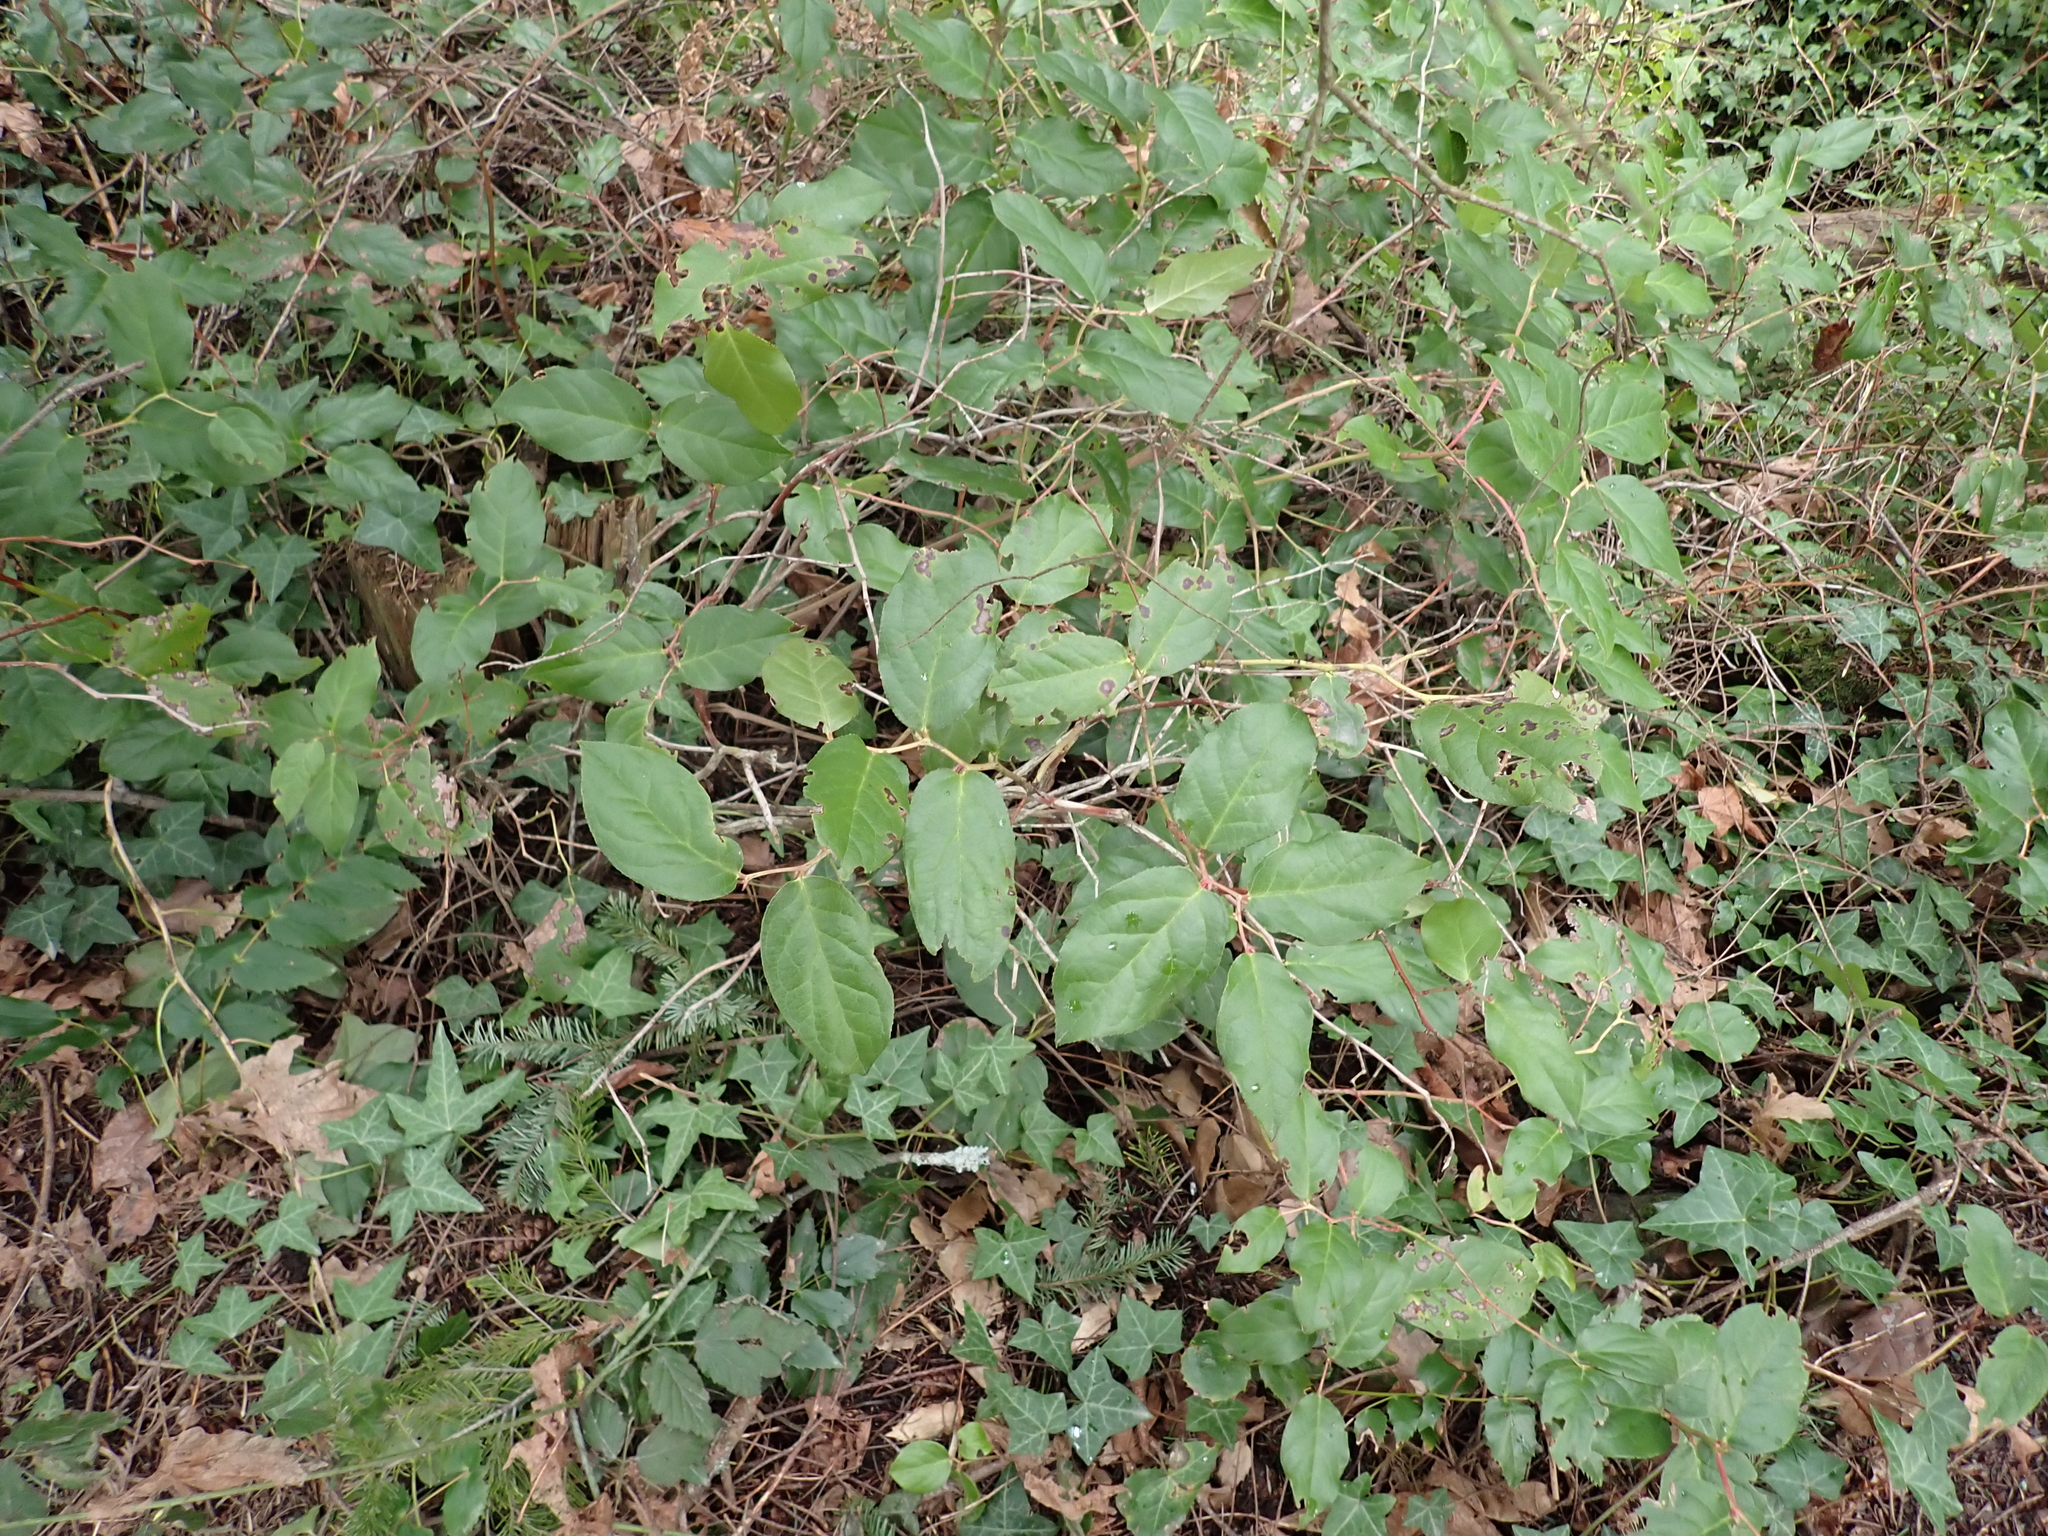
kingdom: Plantae
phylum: Tracheophyta
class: Magnoliopsida
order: Ericales
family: Ericaceae
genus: Gaultheria
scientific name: Gaultheria shallon
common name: Shallon
